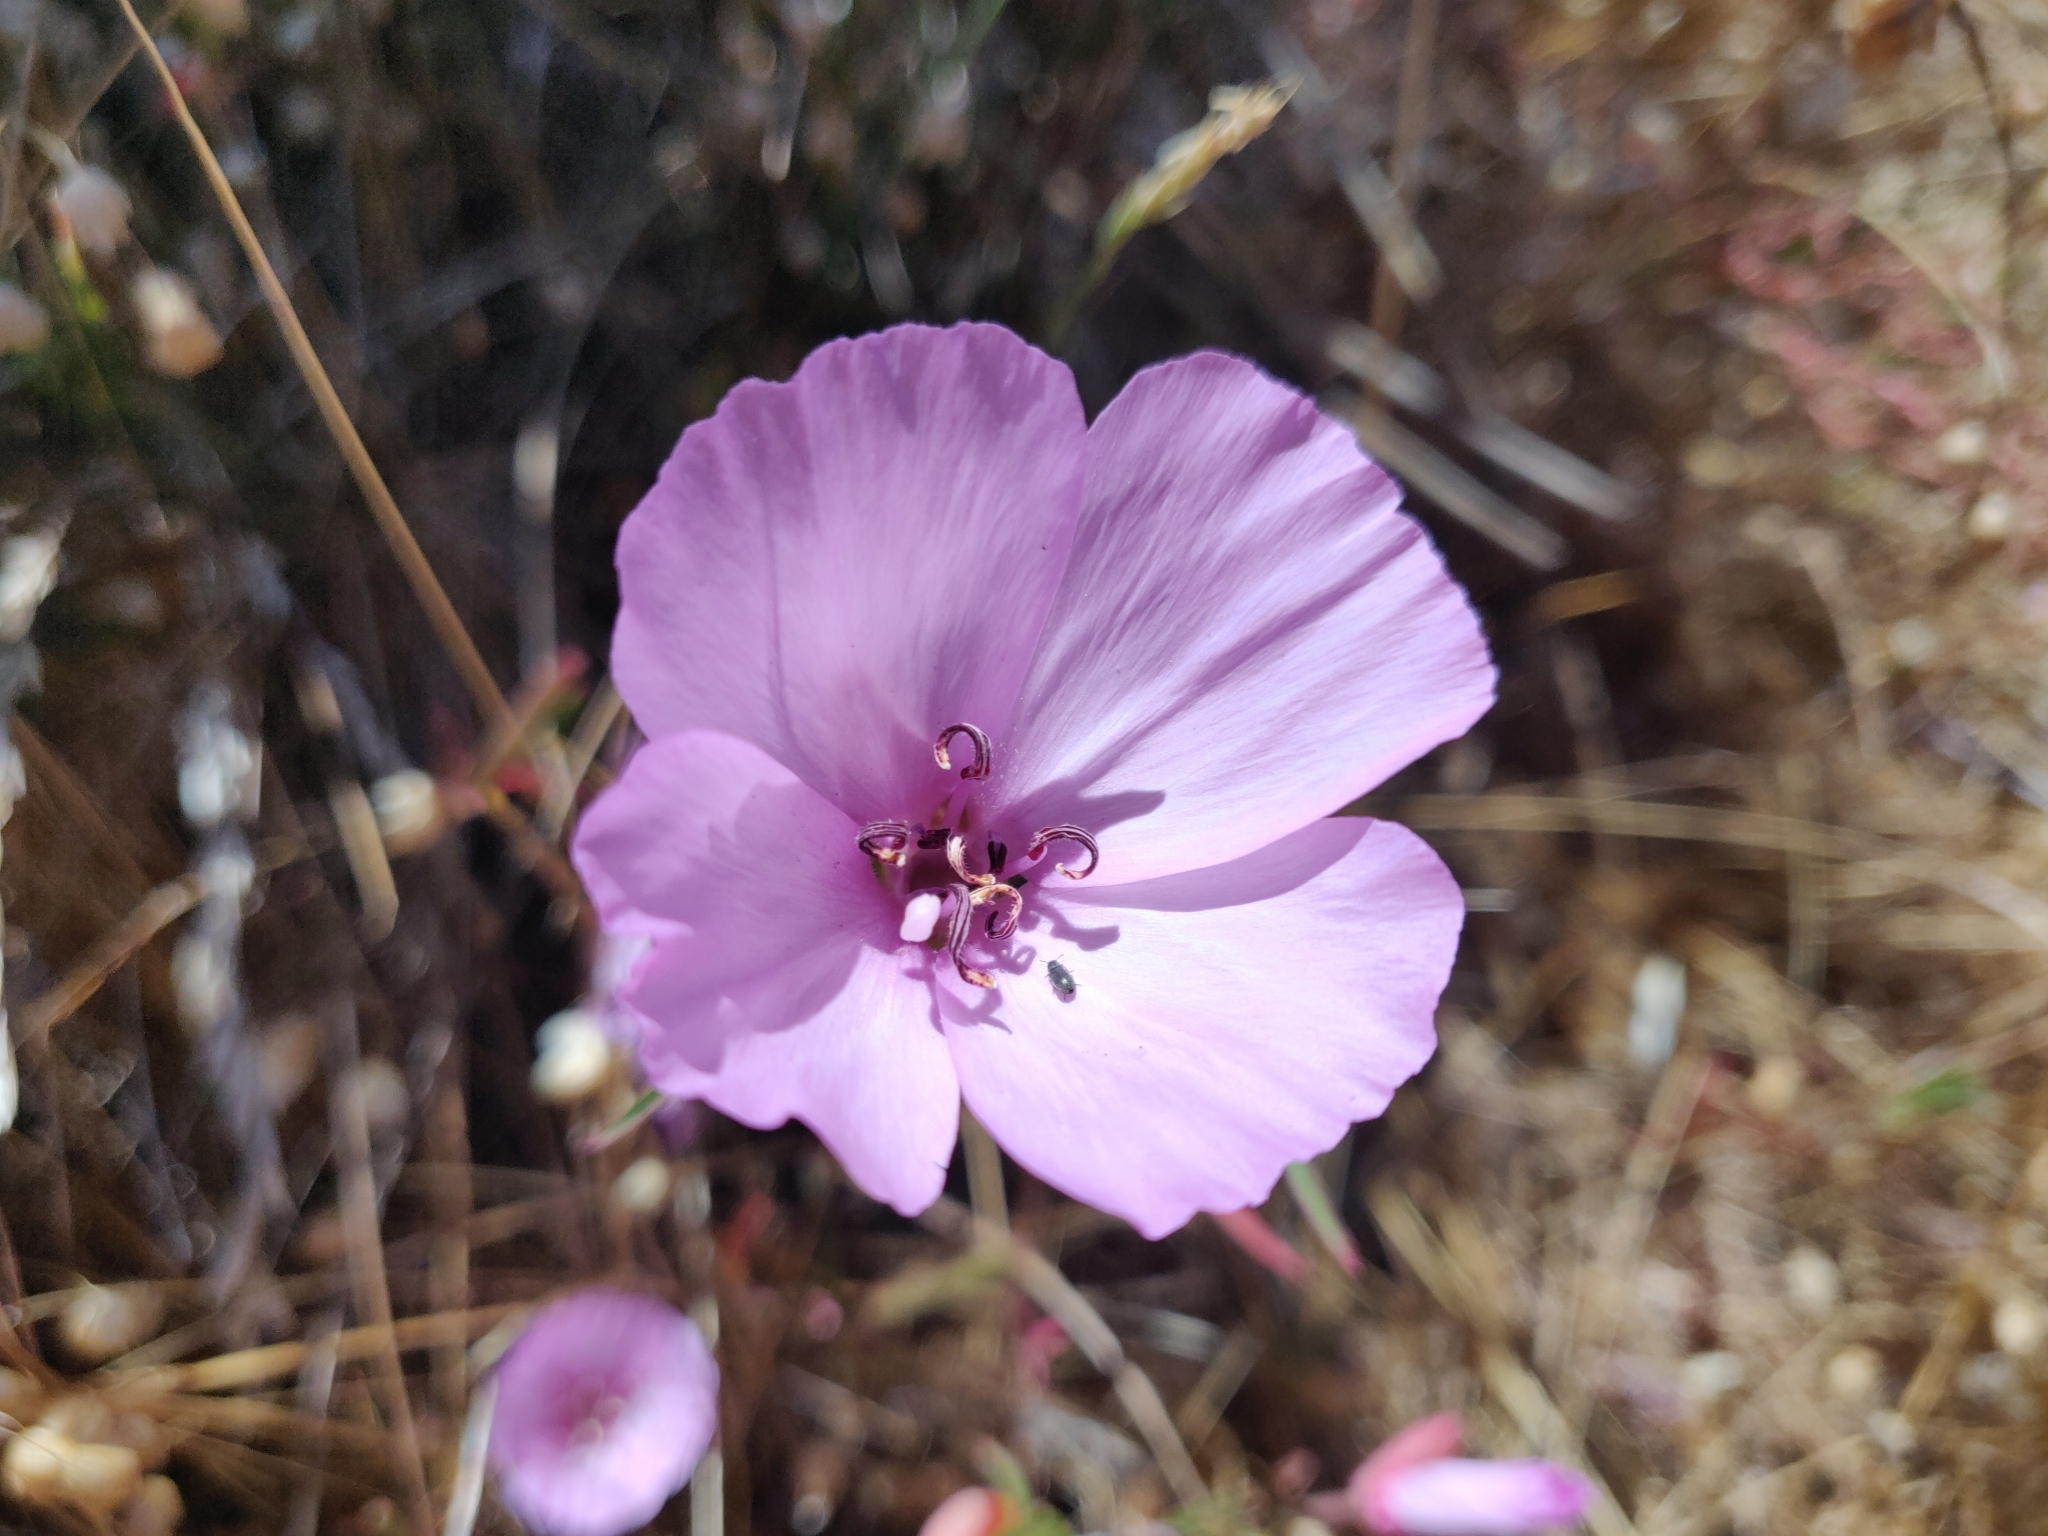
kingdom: Plantae
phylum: Tracheophyta
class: Magnoliopsida
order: Myrtales
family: Onagraceae
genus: Clarkia
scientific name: Clarkia rubicunda
